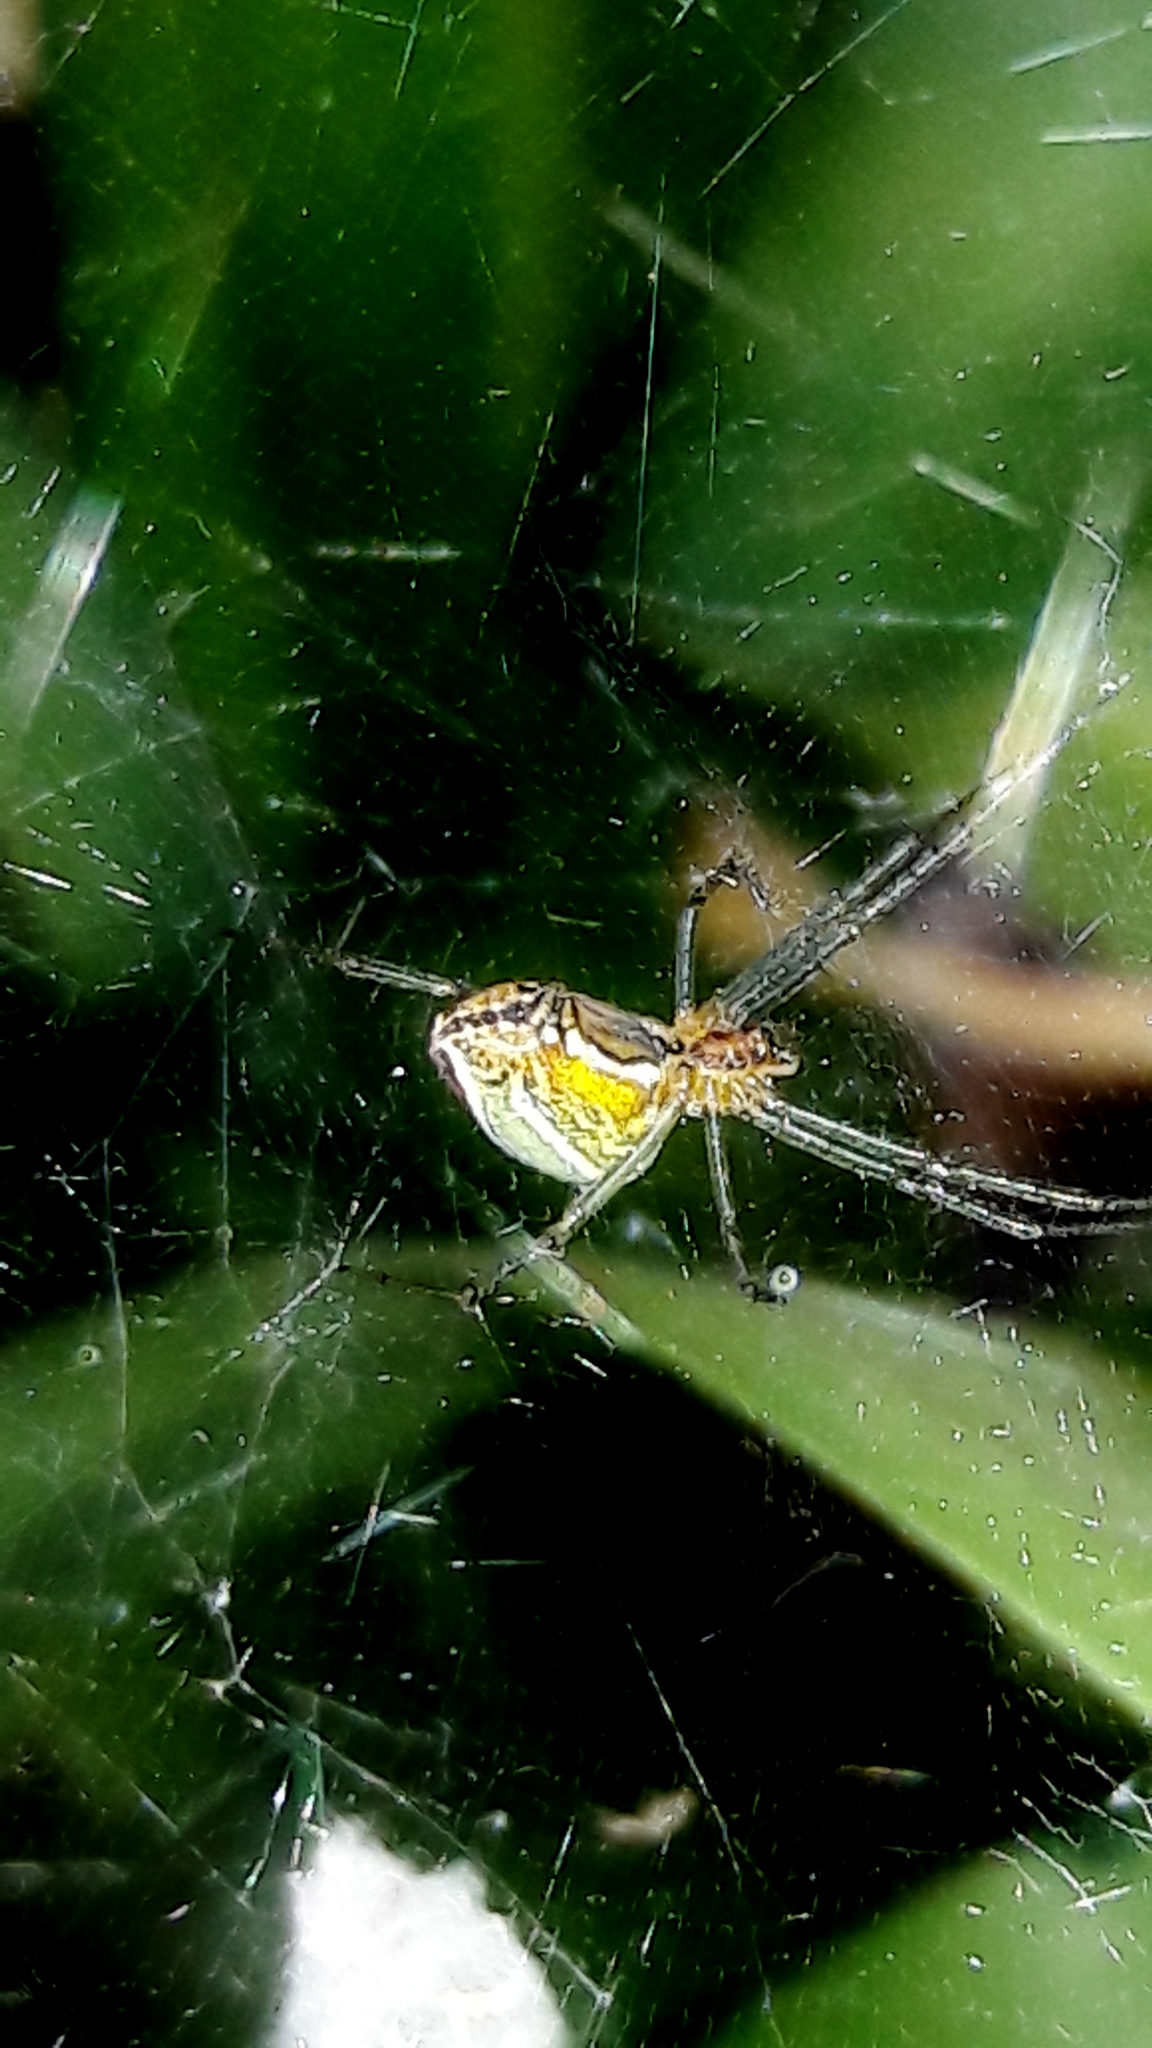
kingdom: Animalia
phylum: Arthropoda
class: Arachnida
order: Araneae
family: Araneidae
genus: Mecynogea
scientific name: Mecynogea lemniscata
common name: Orb weavers
